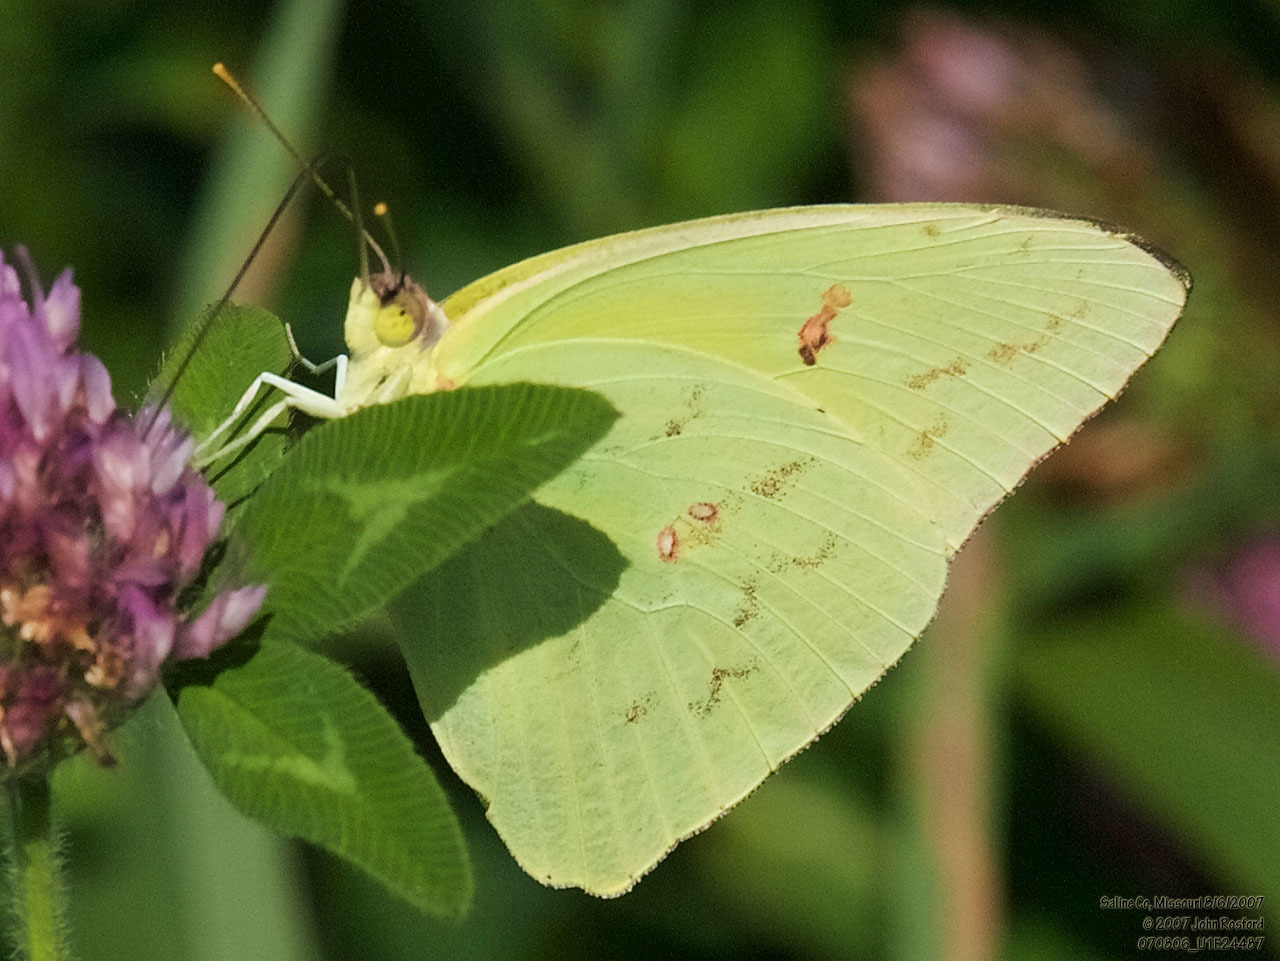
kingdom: Animalia
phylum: Arthropoda
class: Insecta
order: Lepidoptera
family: Pieridae
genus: Phoebis
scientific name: Phoebis sennae
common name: Cloudless sulphur
